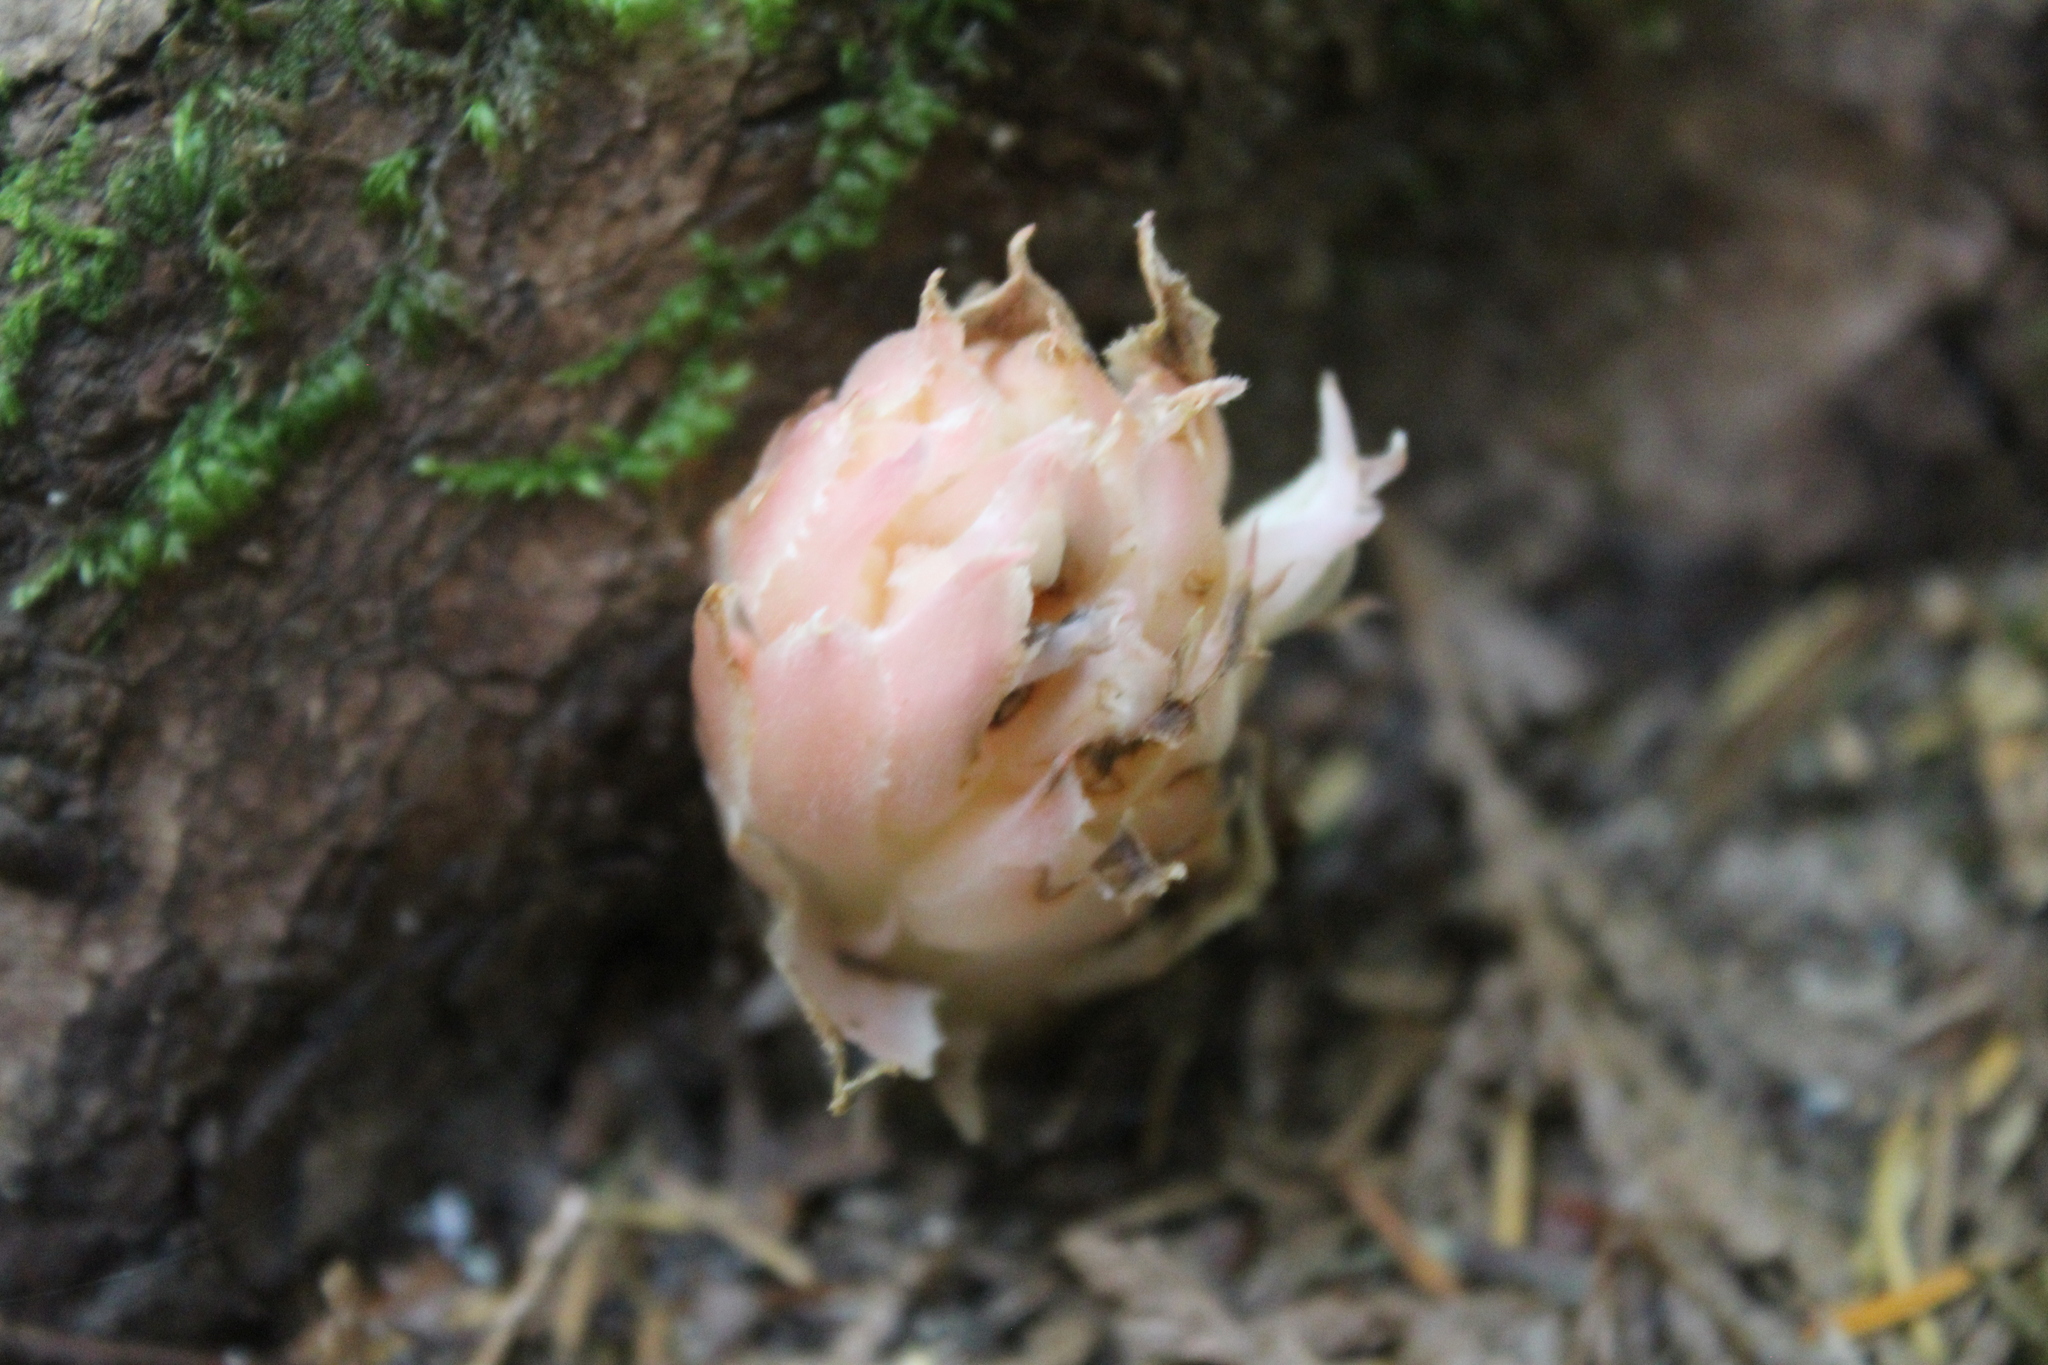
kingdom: Plantae
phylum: Tracheophyta
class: Magnoliopsida
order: Ericales
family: Ericaceae
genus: Pleuricospora
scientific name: Pleuricospora fimbriolata
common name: Fringed pinesap
